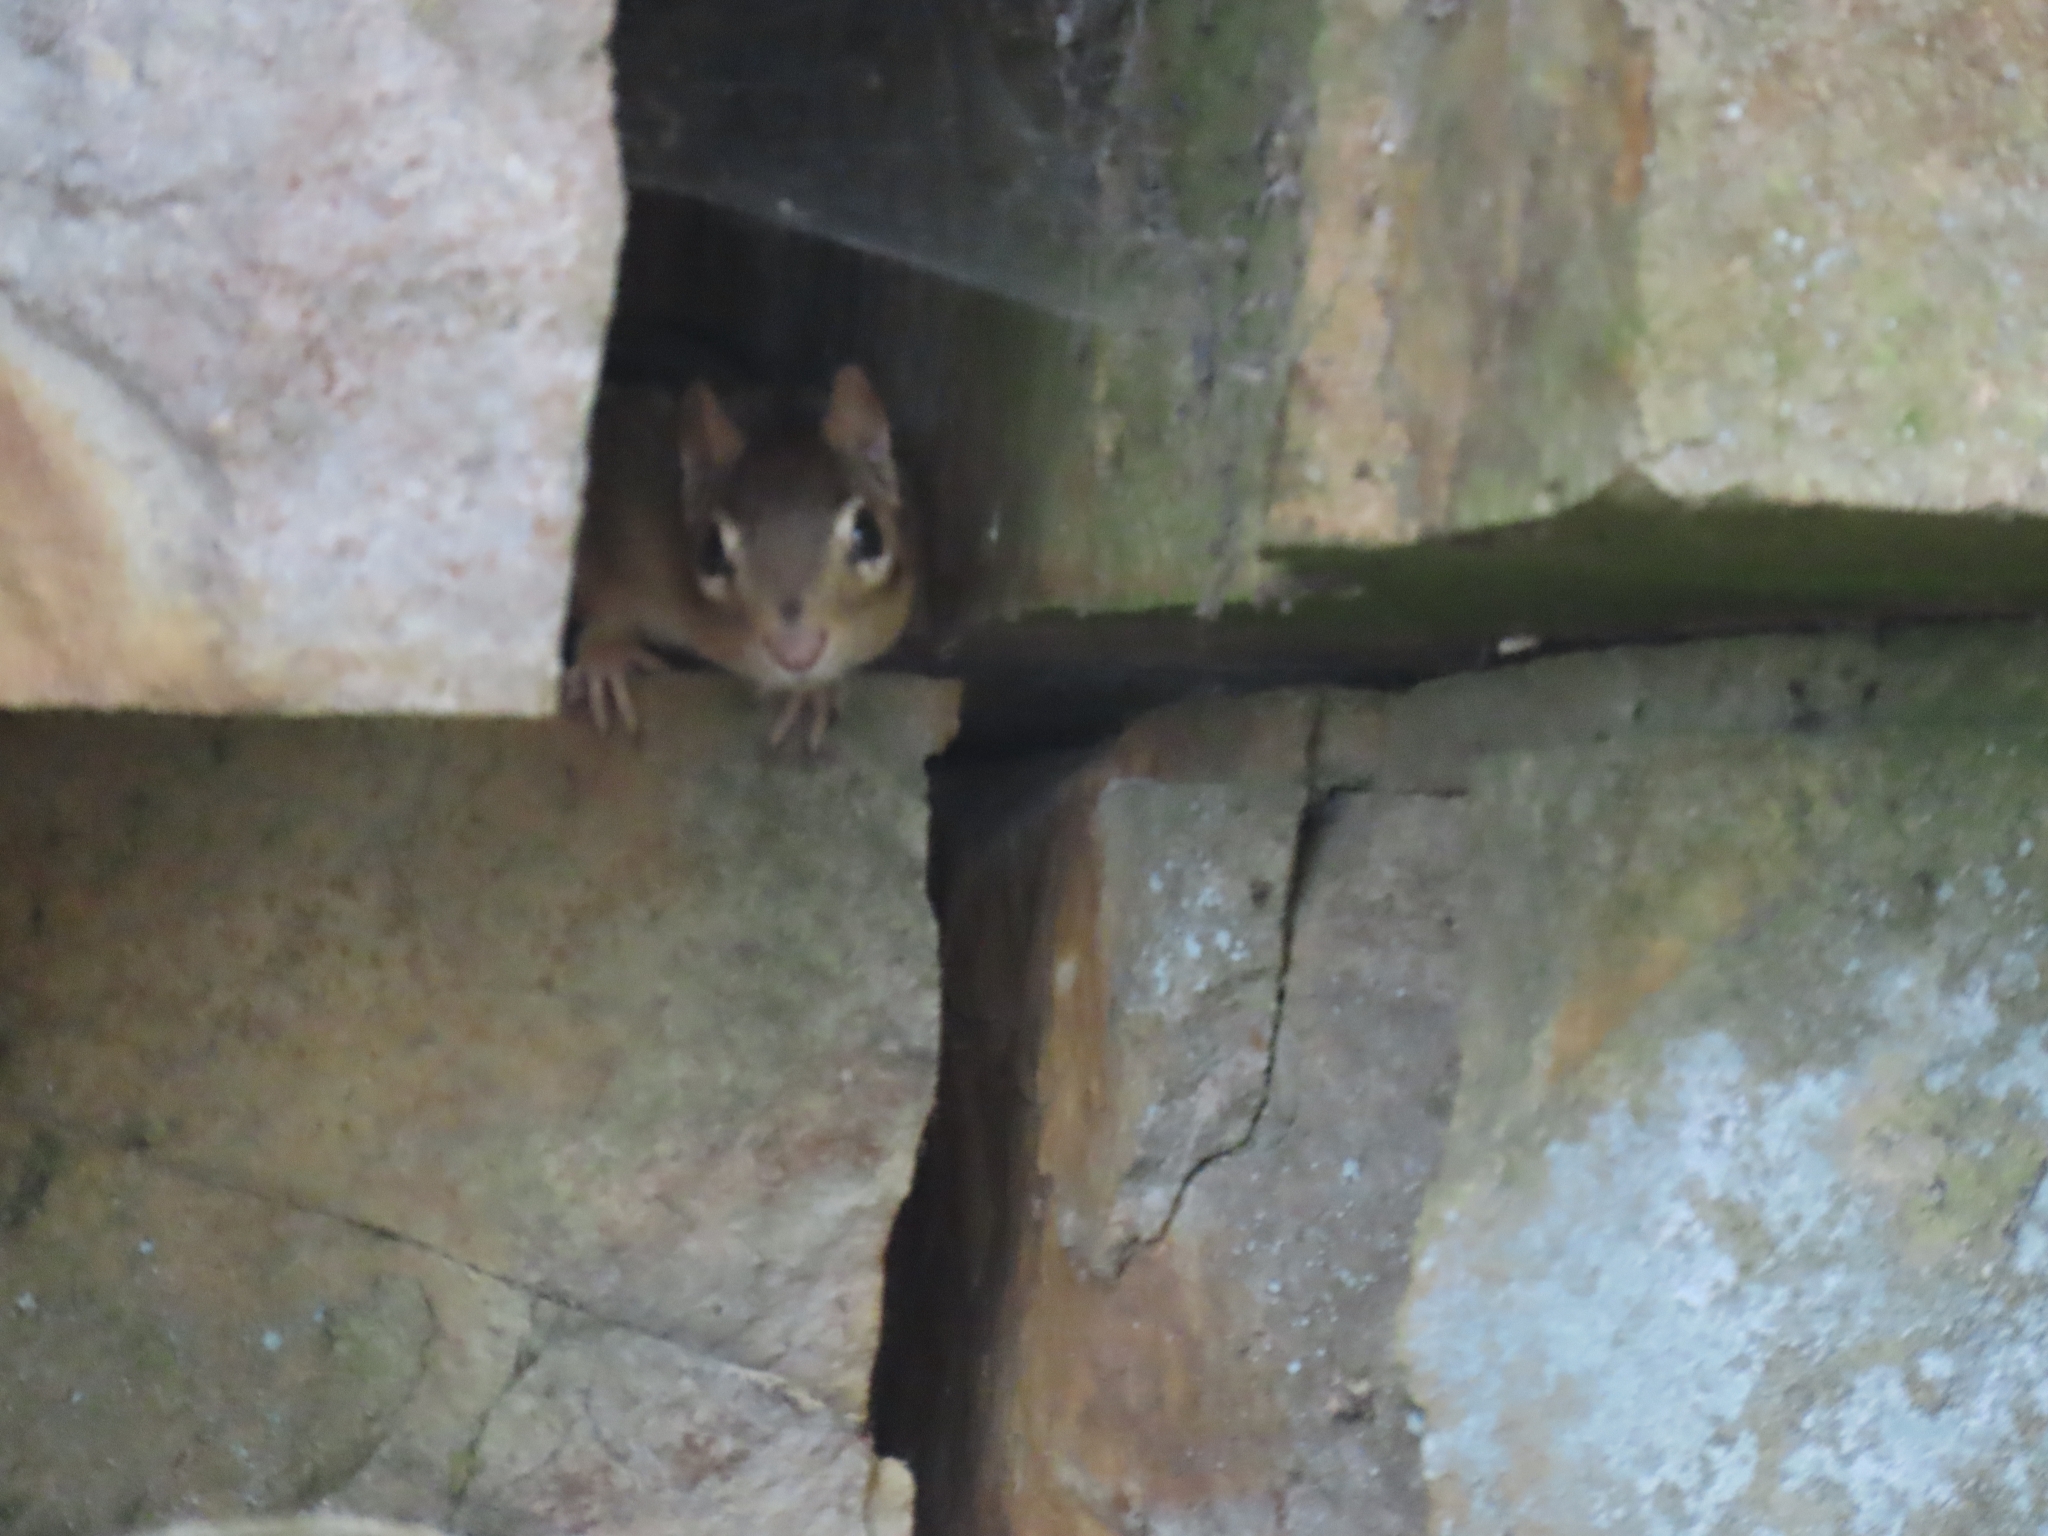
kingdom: Animalia
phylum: Chordata
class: Mammalia
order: Rodentia
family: Sciuridae
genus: Tamias
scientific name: Tamias striatus
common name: Eastern chipmunk
